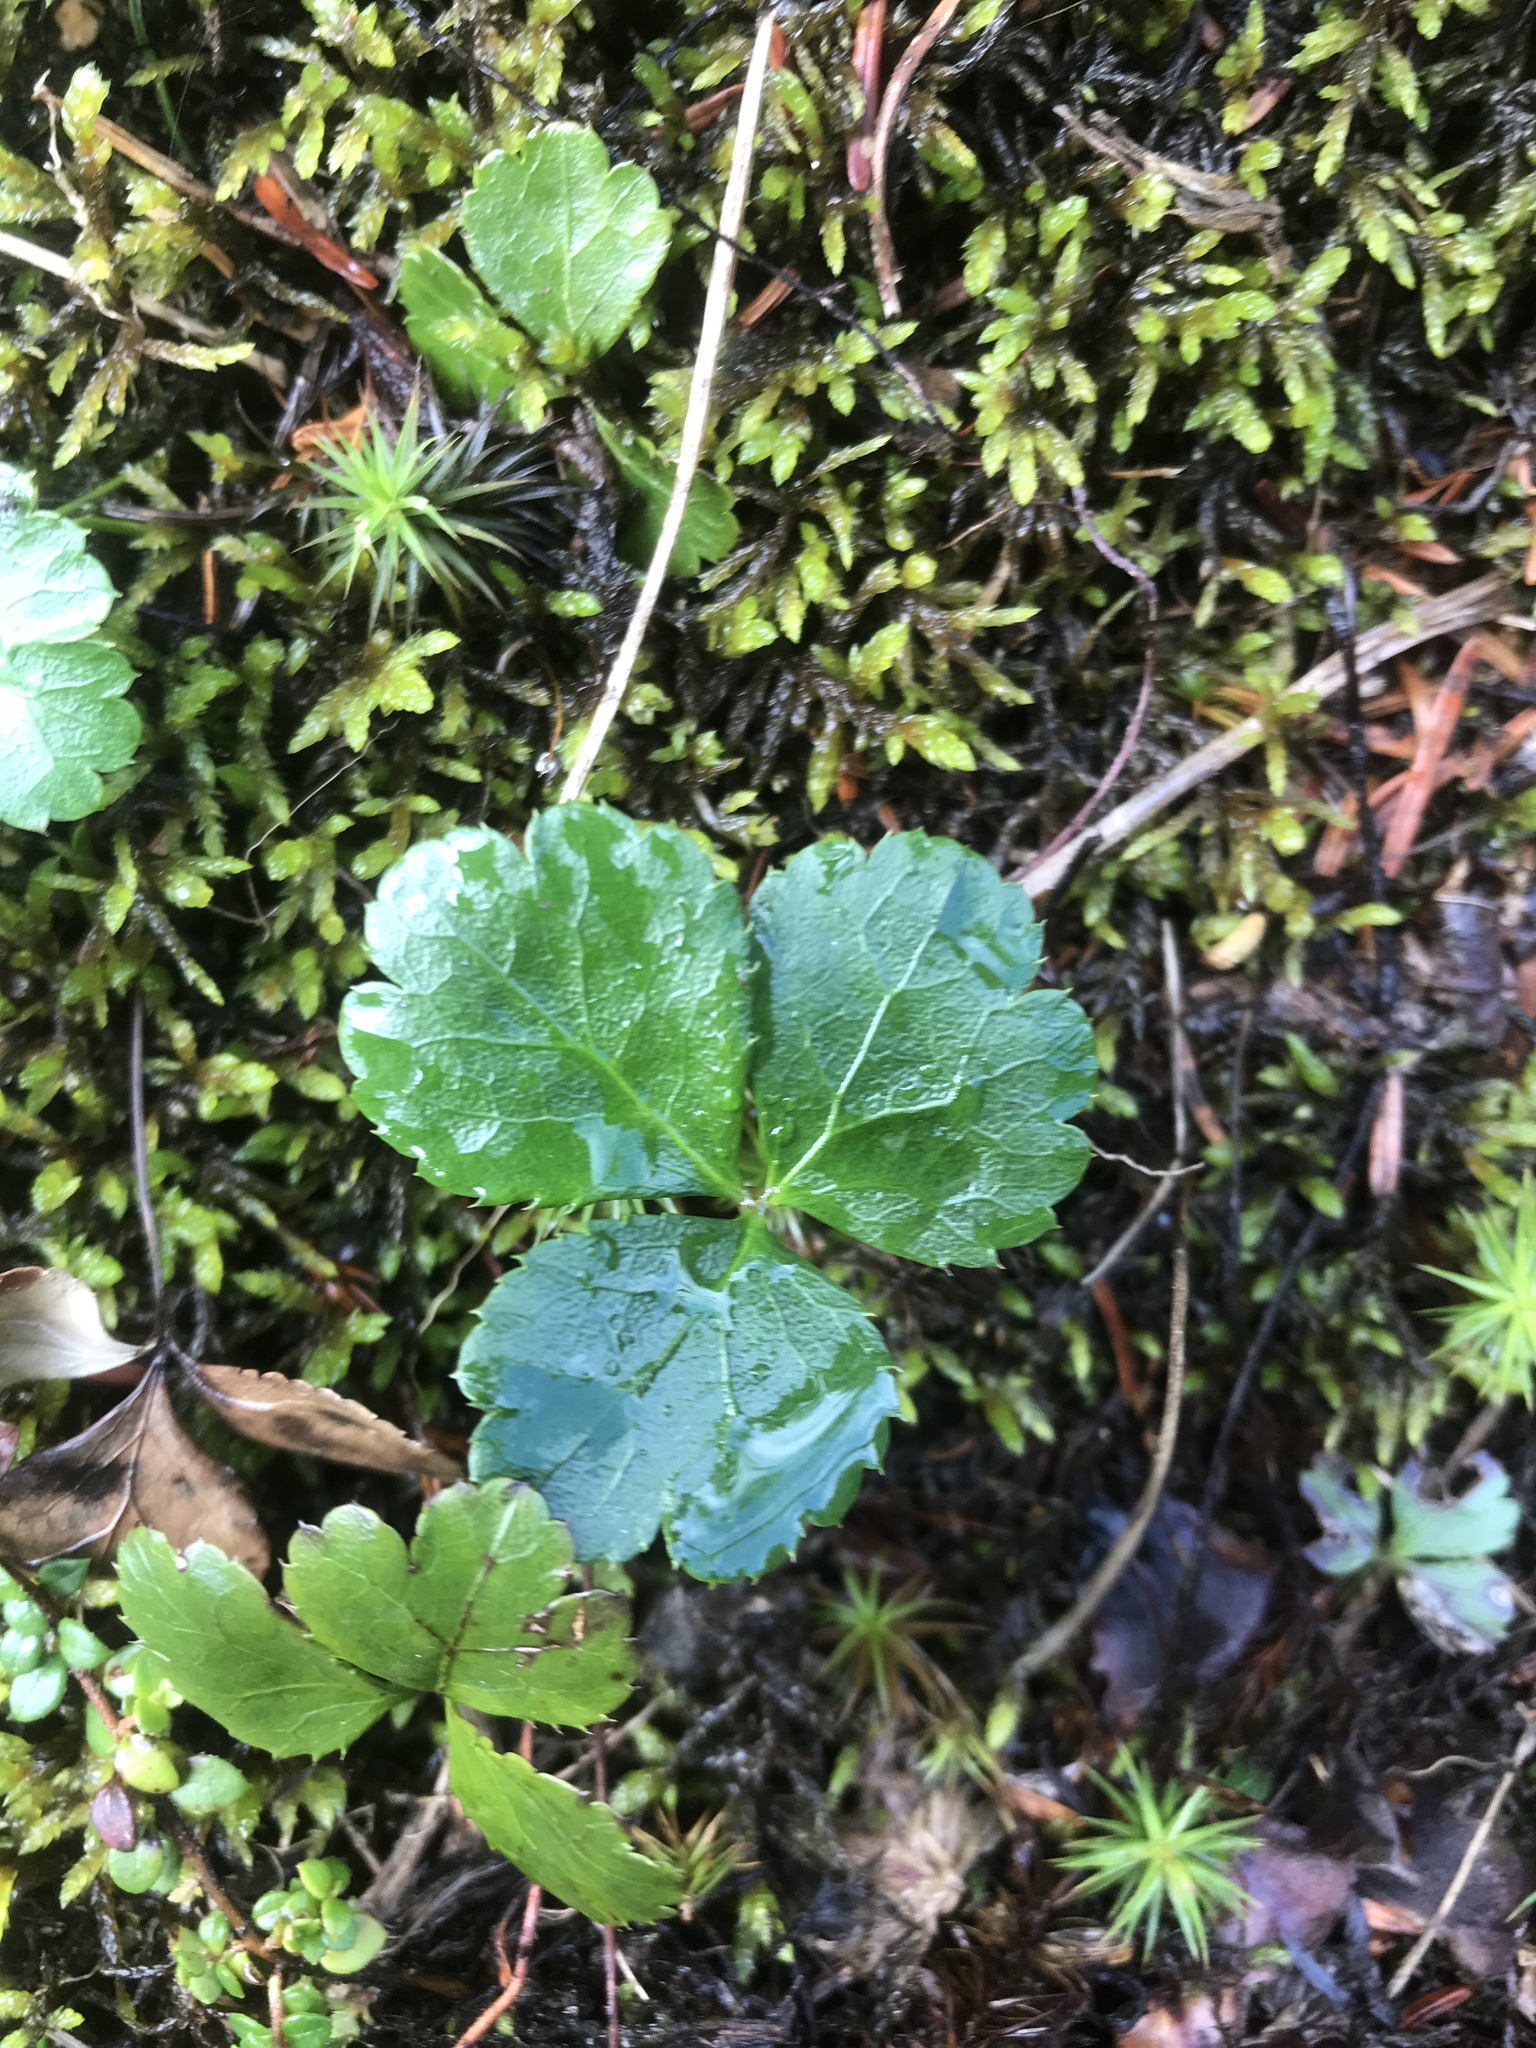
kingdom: Plantae
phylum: Tracheophyta
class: Magnoliopsida
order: Ranunculales
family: Ranunculaceae
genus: Coptis
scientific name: Coptis trifolia
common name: Canker-root
